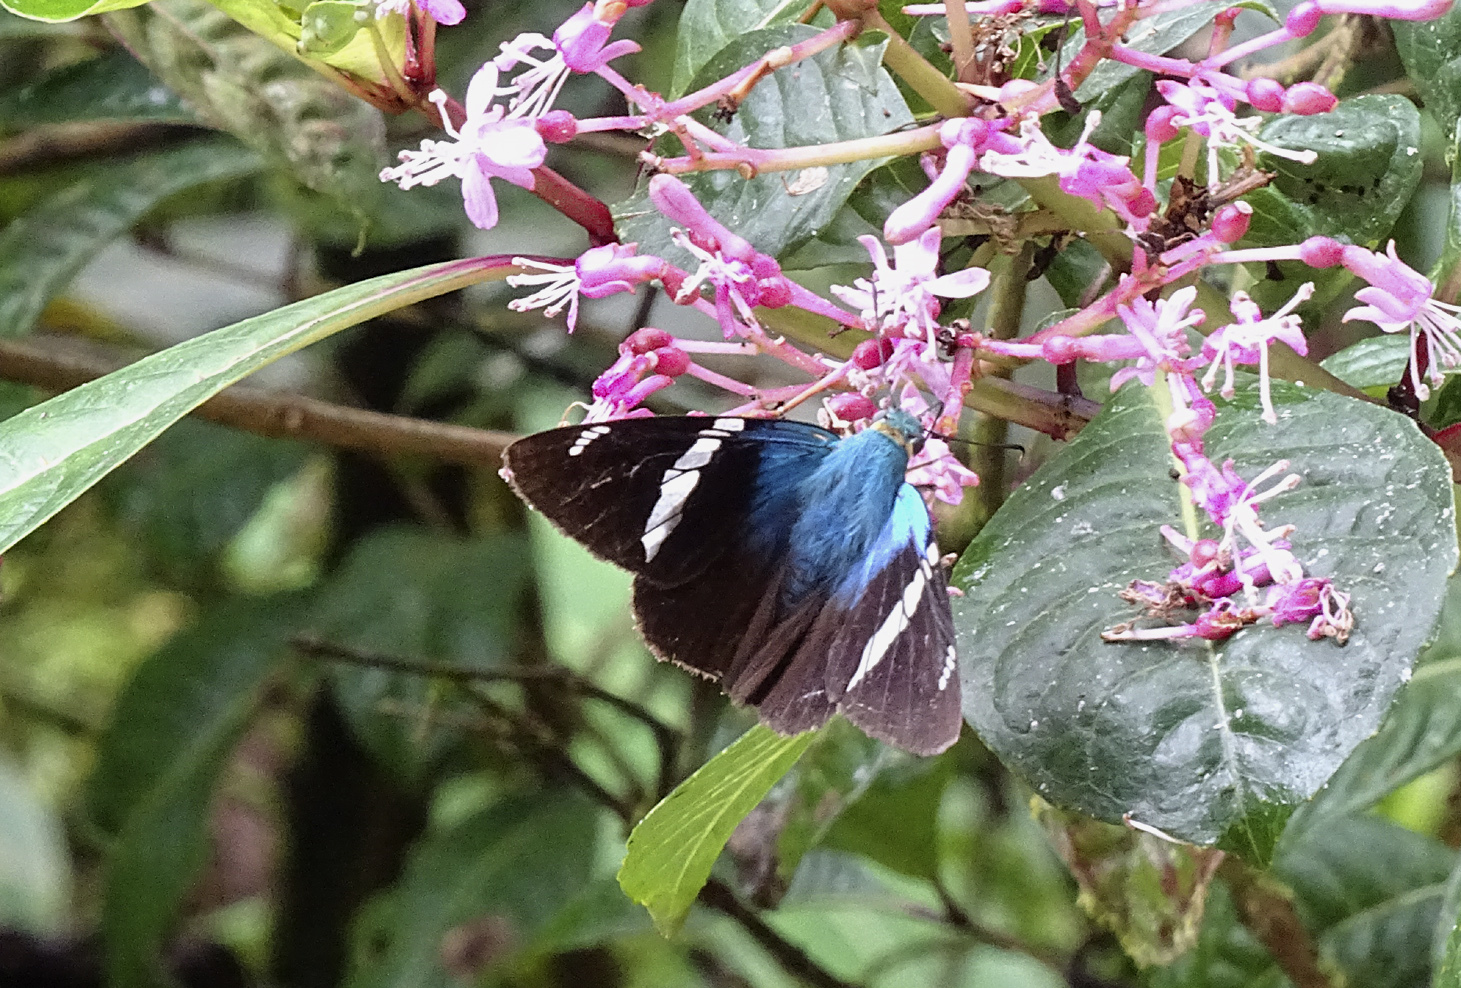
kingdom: Animalia
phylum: Arthropoda
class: Insecta
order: Lepidoptera
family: Hesperiidae
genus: Astraptes
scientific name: Astraptes fulgerator
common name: Two-barred flasher
